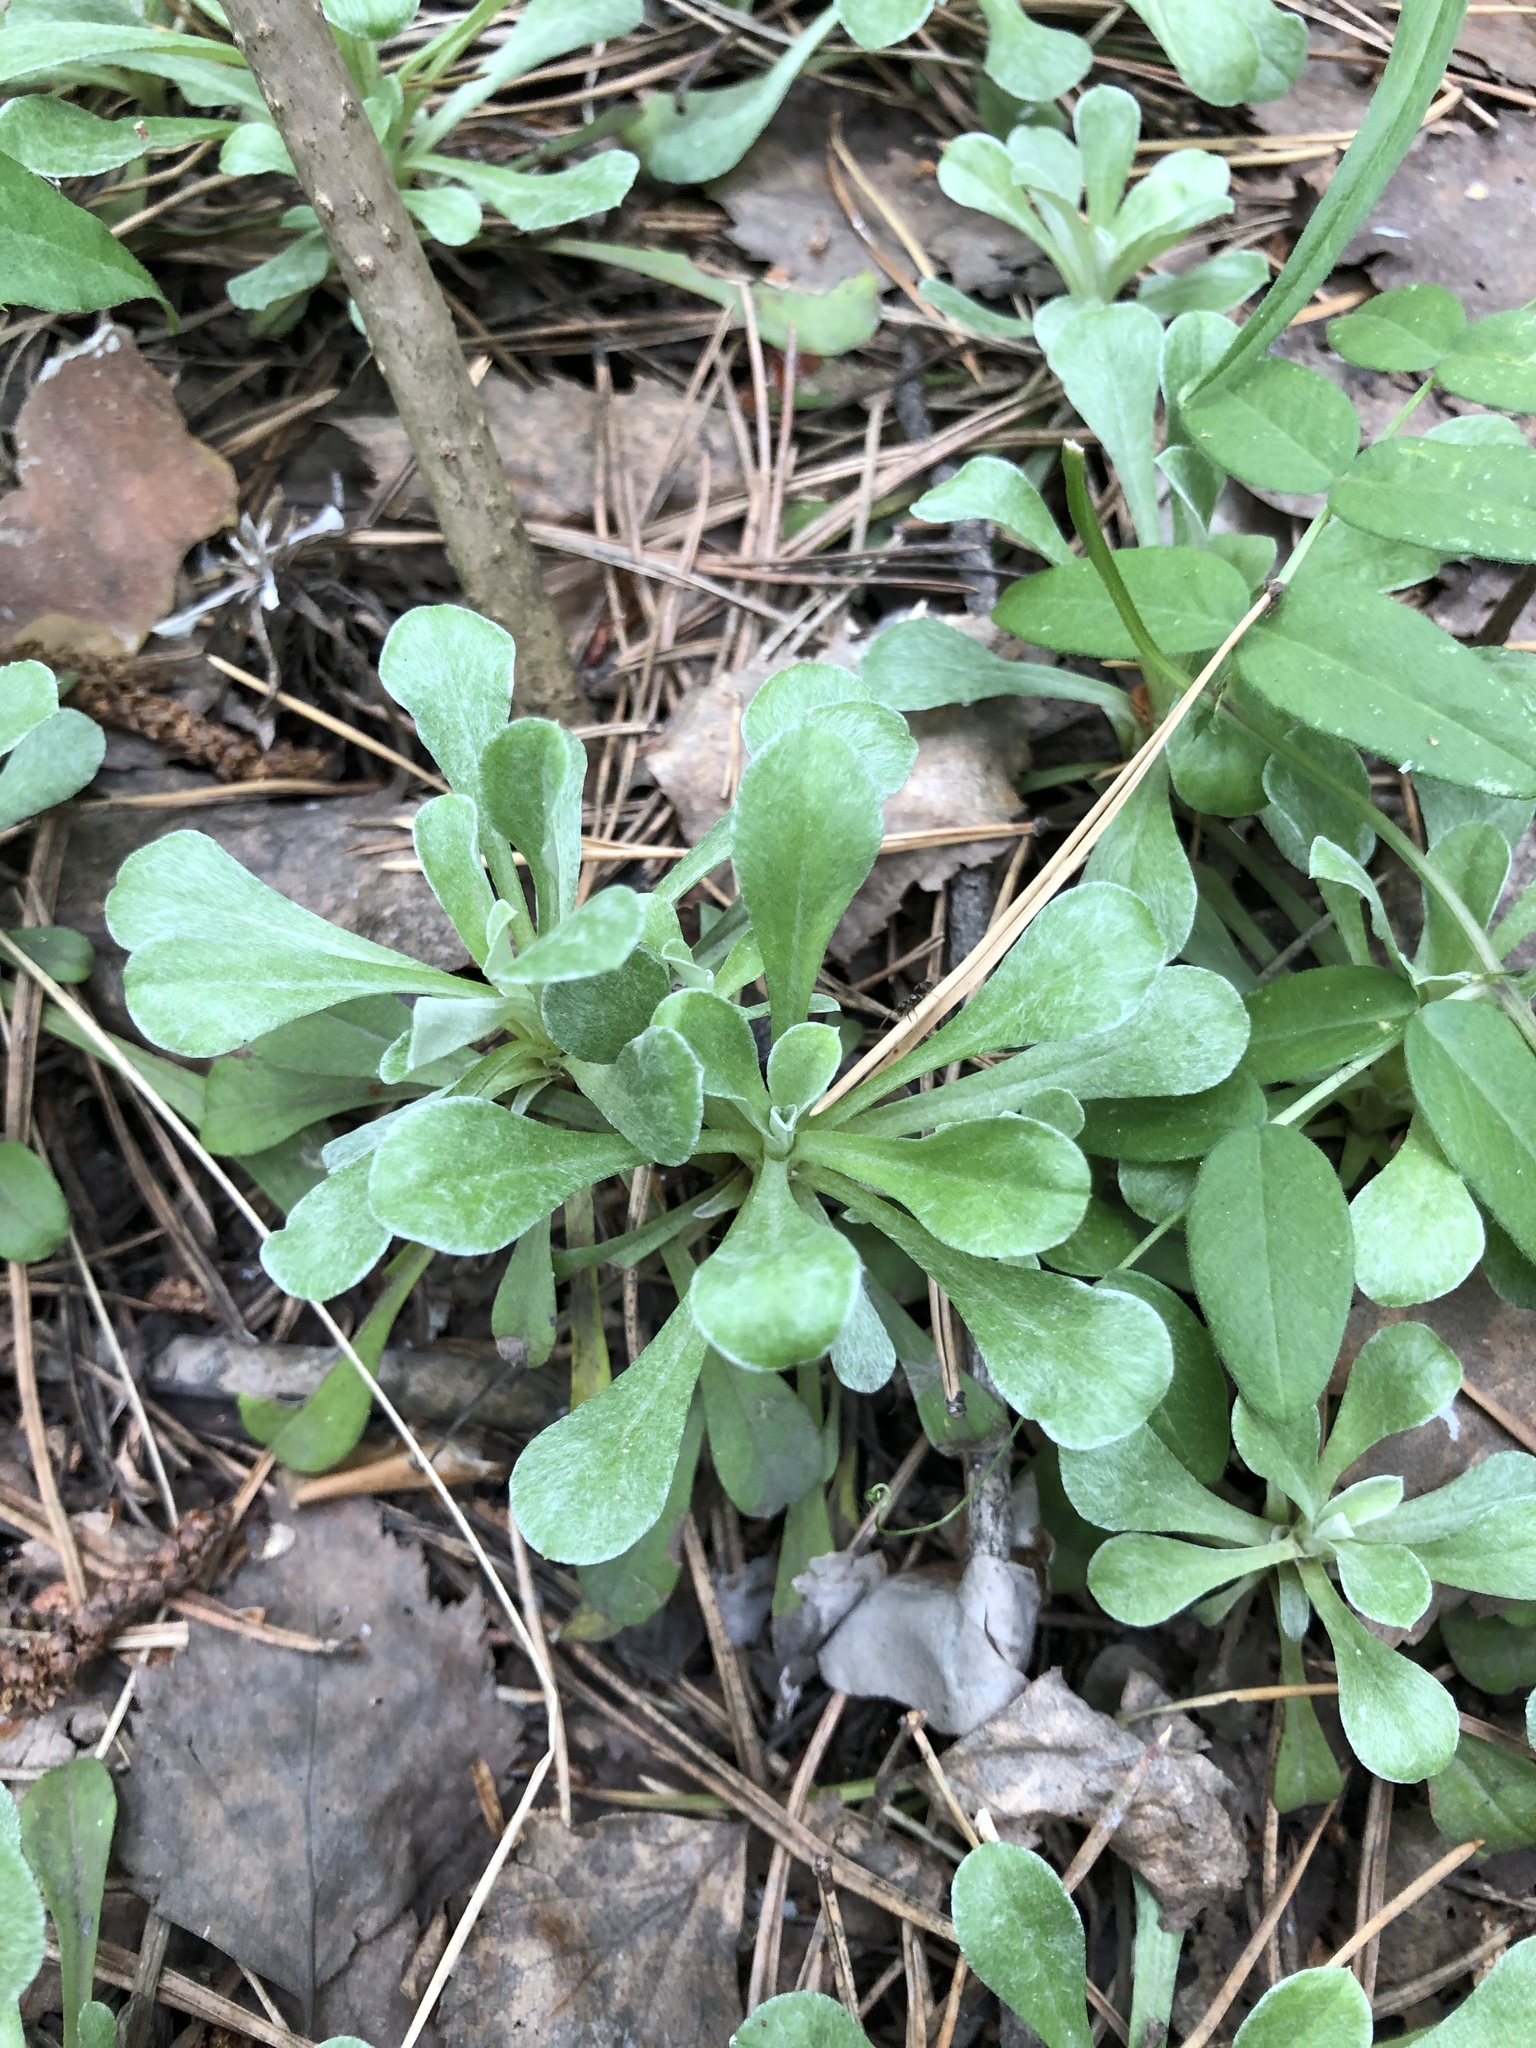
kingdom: Plantae
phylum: Tracheophyta
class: Magnoliopsida
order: Asterales
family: Asteraceae
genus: Antennaria
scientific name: Antennaria dioica
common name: Mountain everlasting
